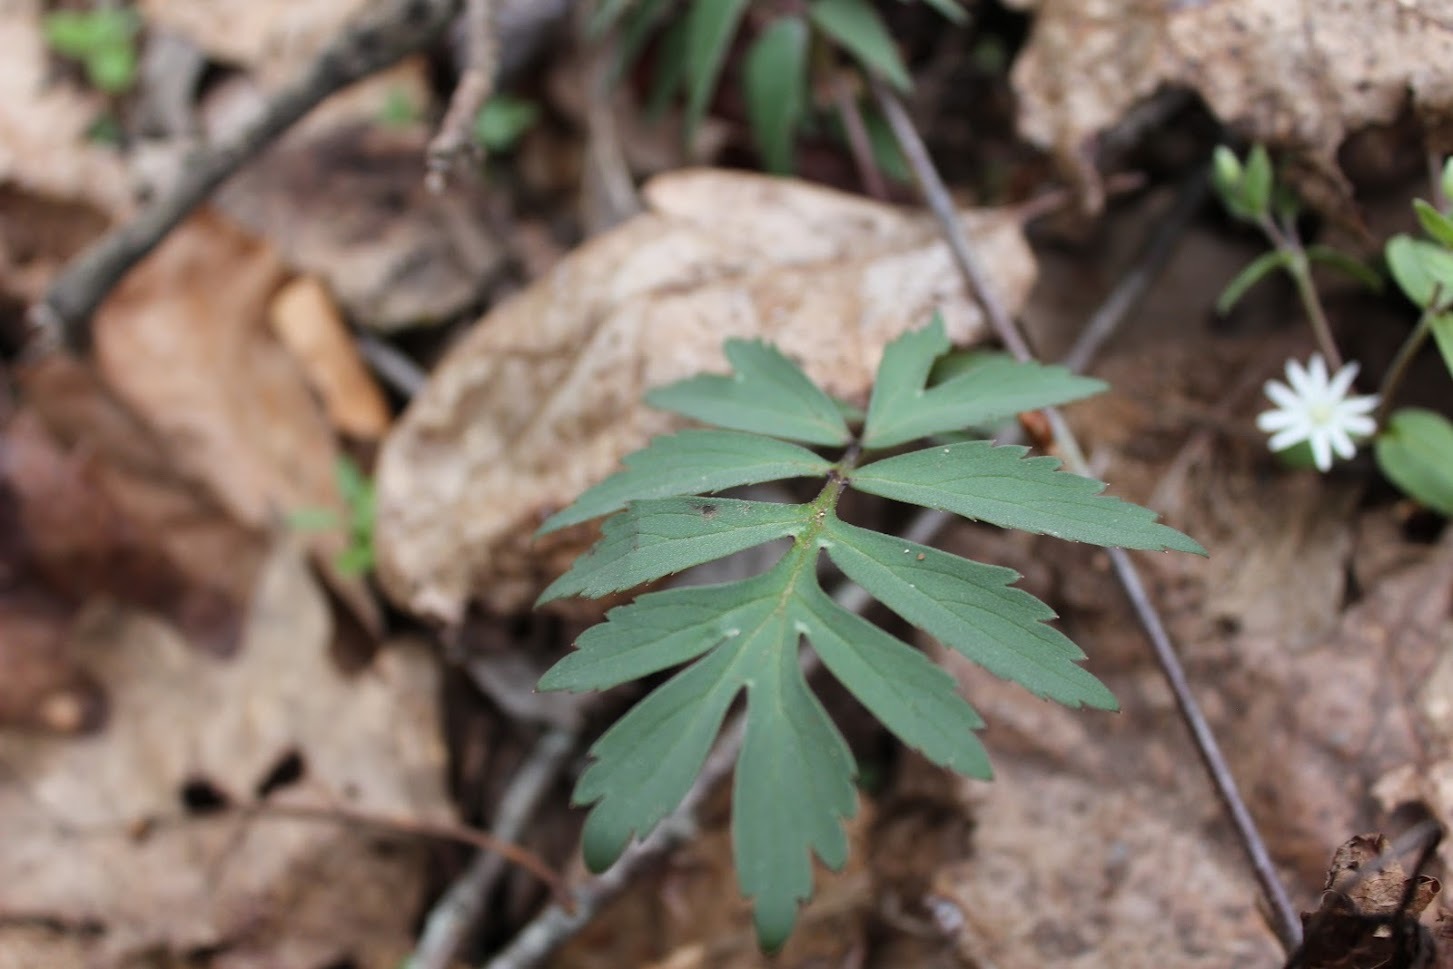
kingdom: Plantae
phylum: Tracheophyta
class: Magnoliopsida
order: Boraginales
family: Hydrophyllaceae
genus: Hydrophyllum
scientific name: Hydrophyllum virginianum
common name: Virginia waterleaf
